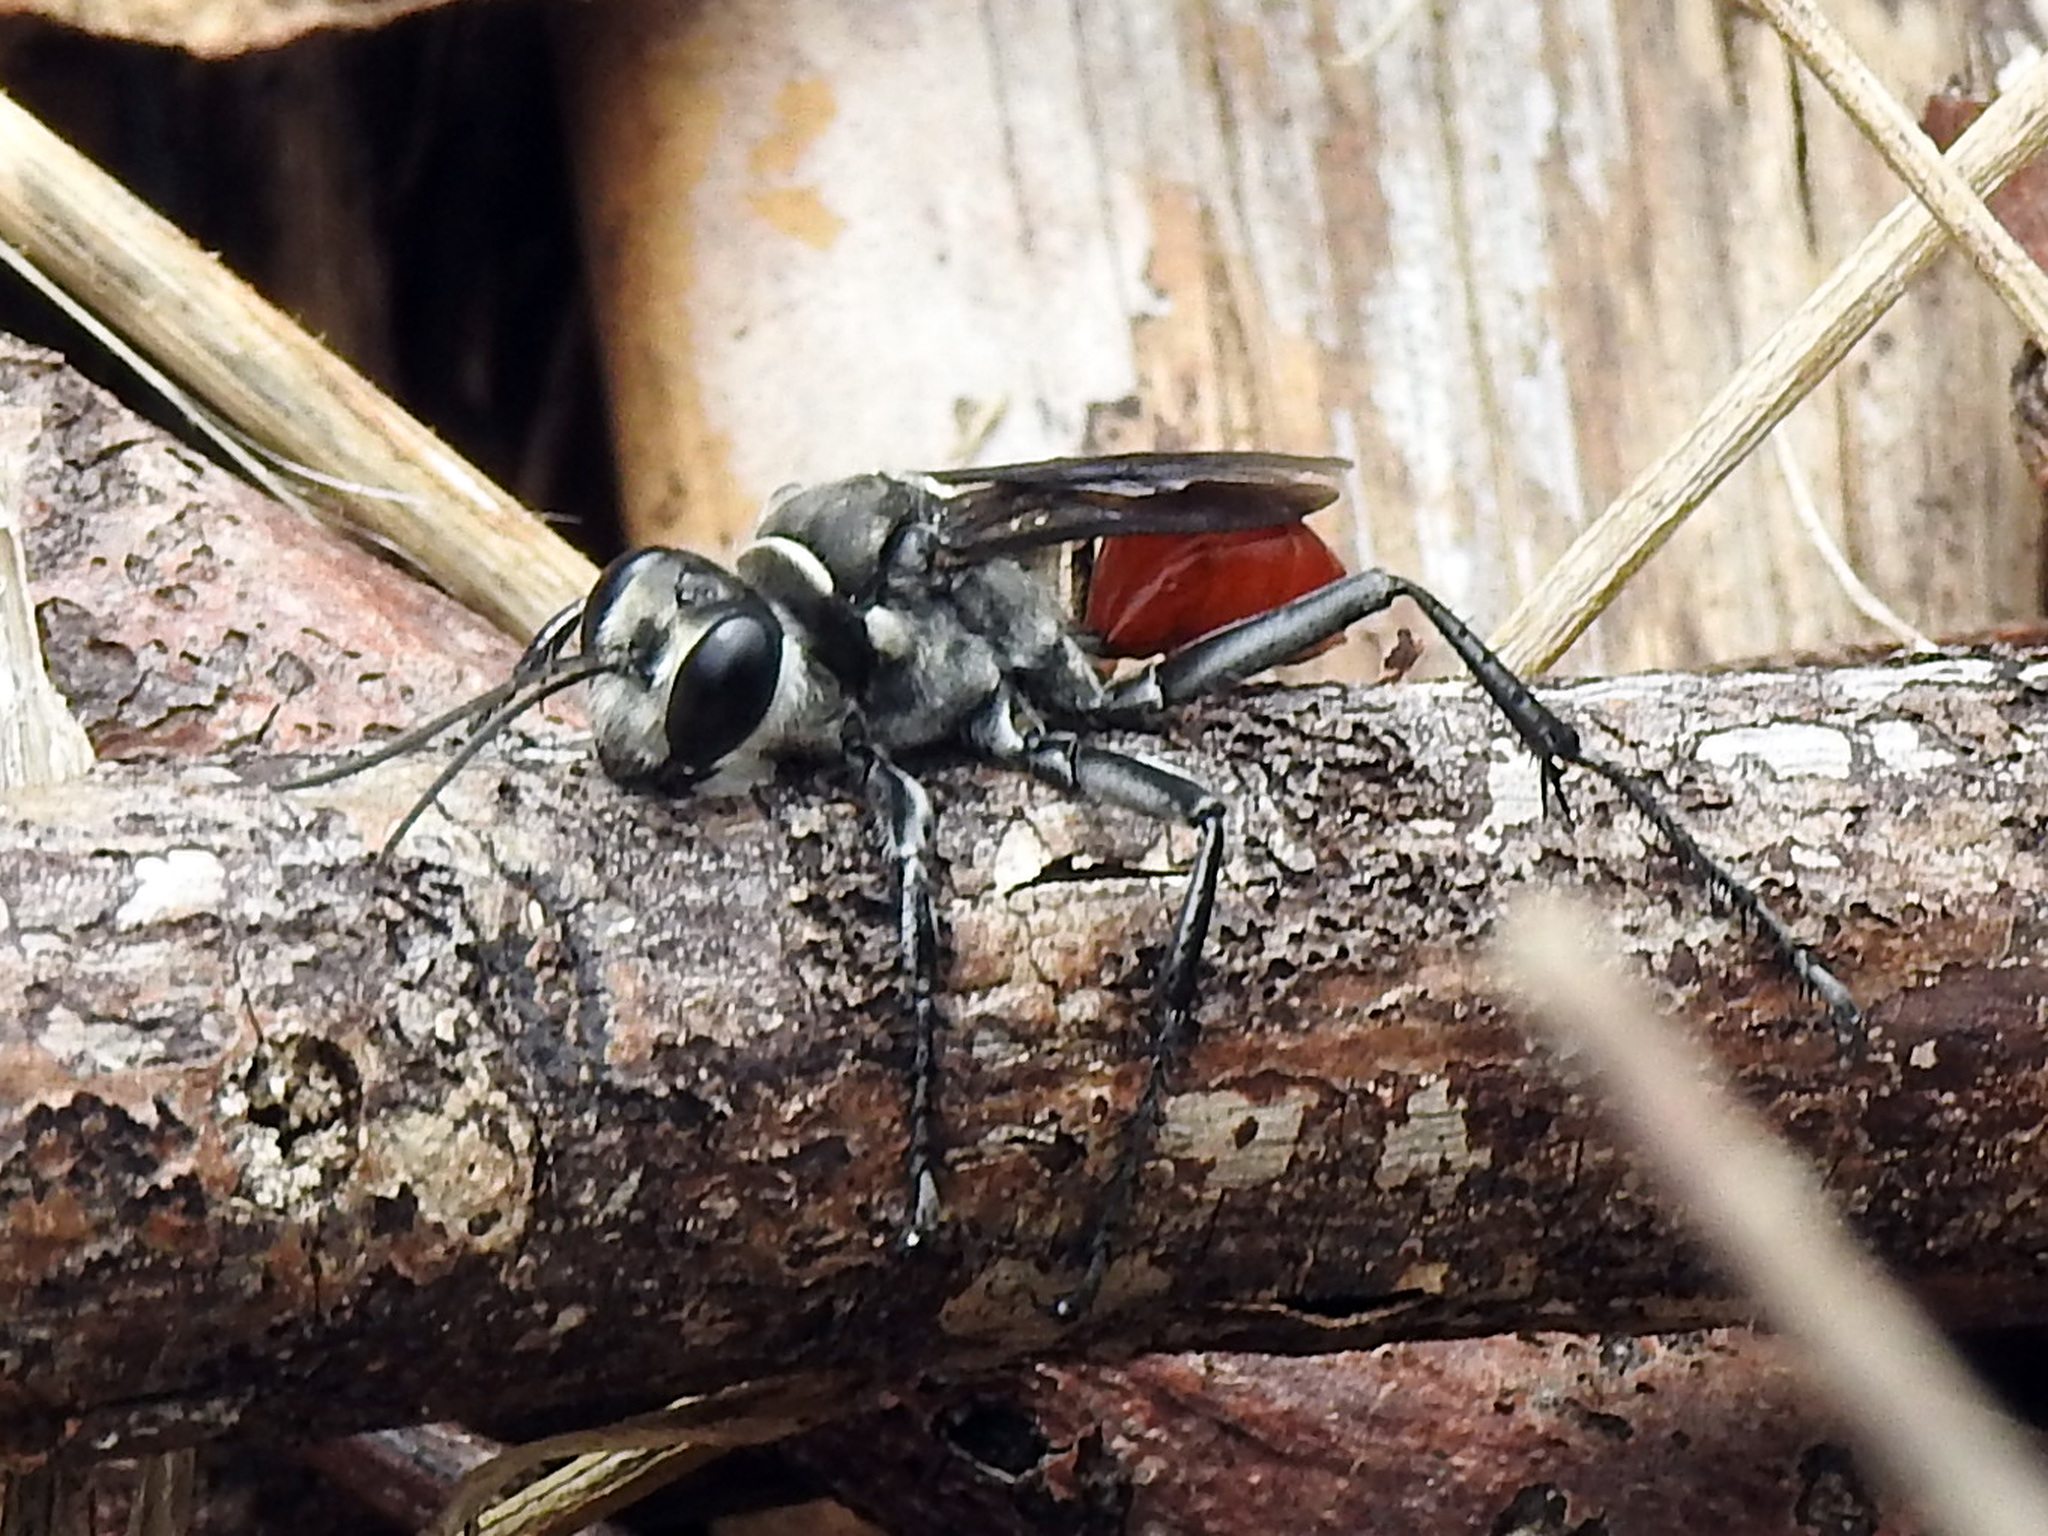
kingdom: Animalia
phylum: Arthropoda
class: Insecta
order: Hymenoptera
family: Sphecidae
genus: Prionyx
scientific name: Prionyx thomae
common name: Mud dauber
